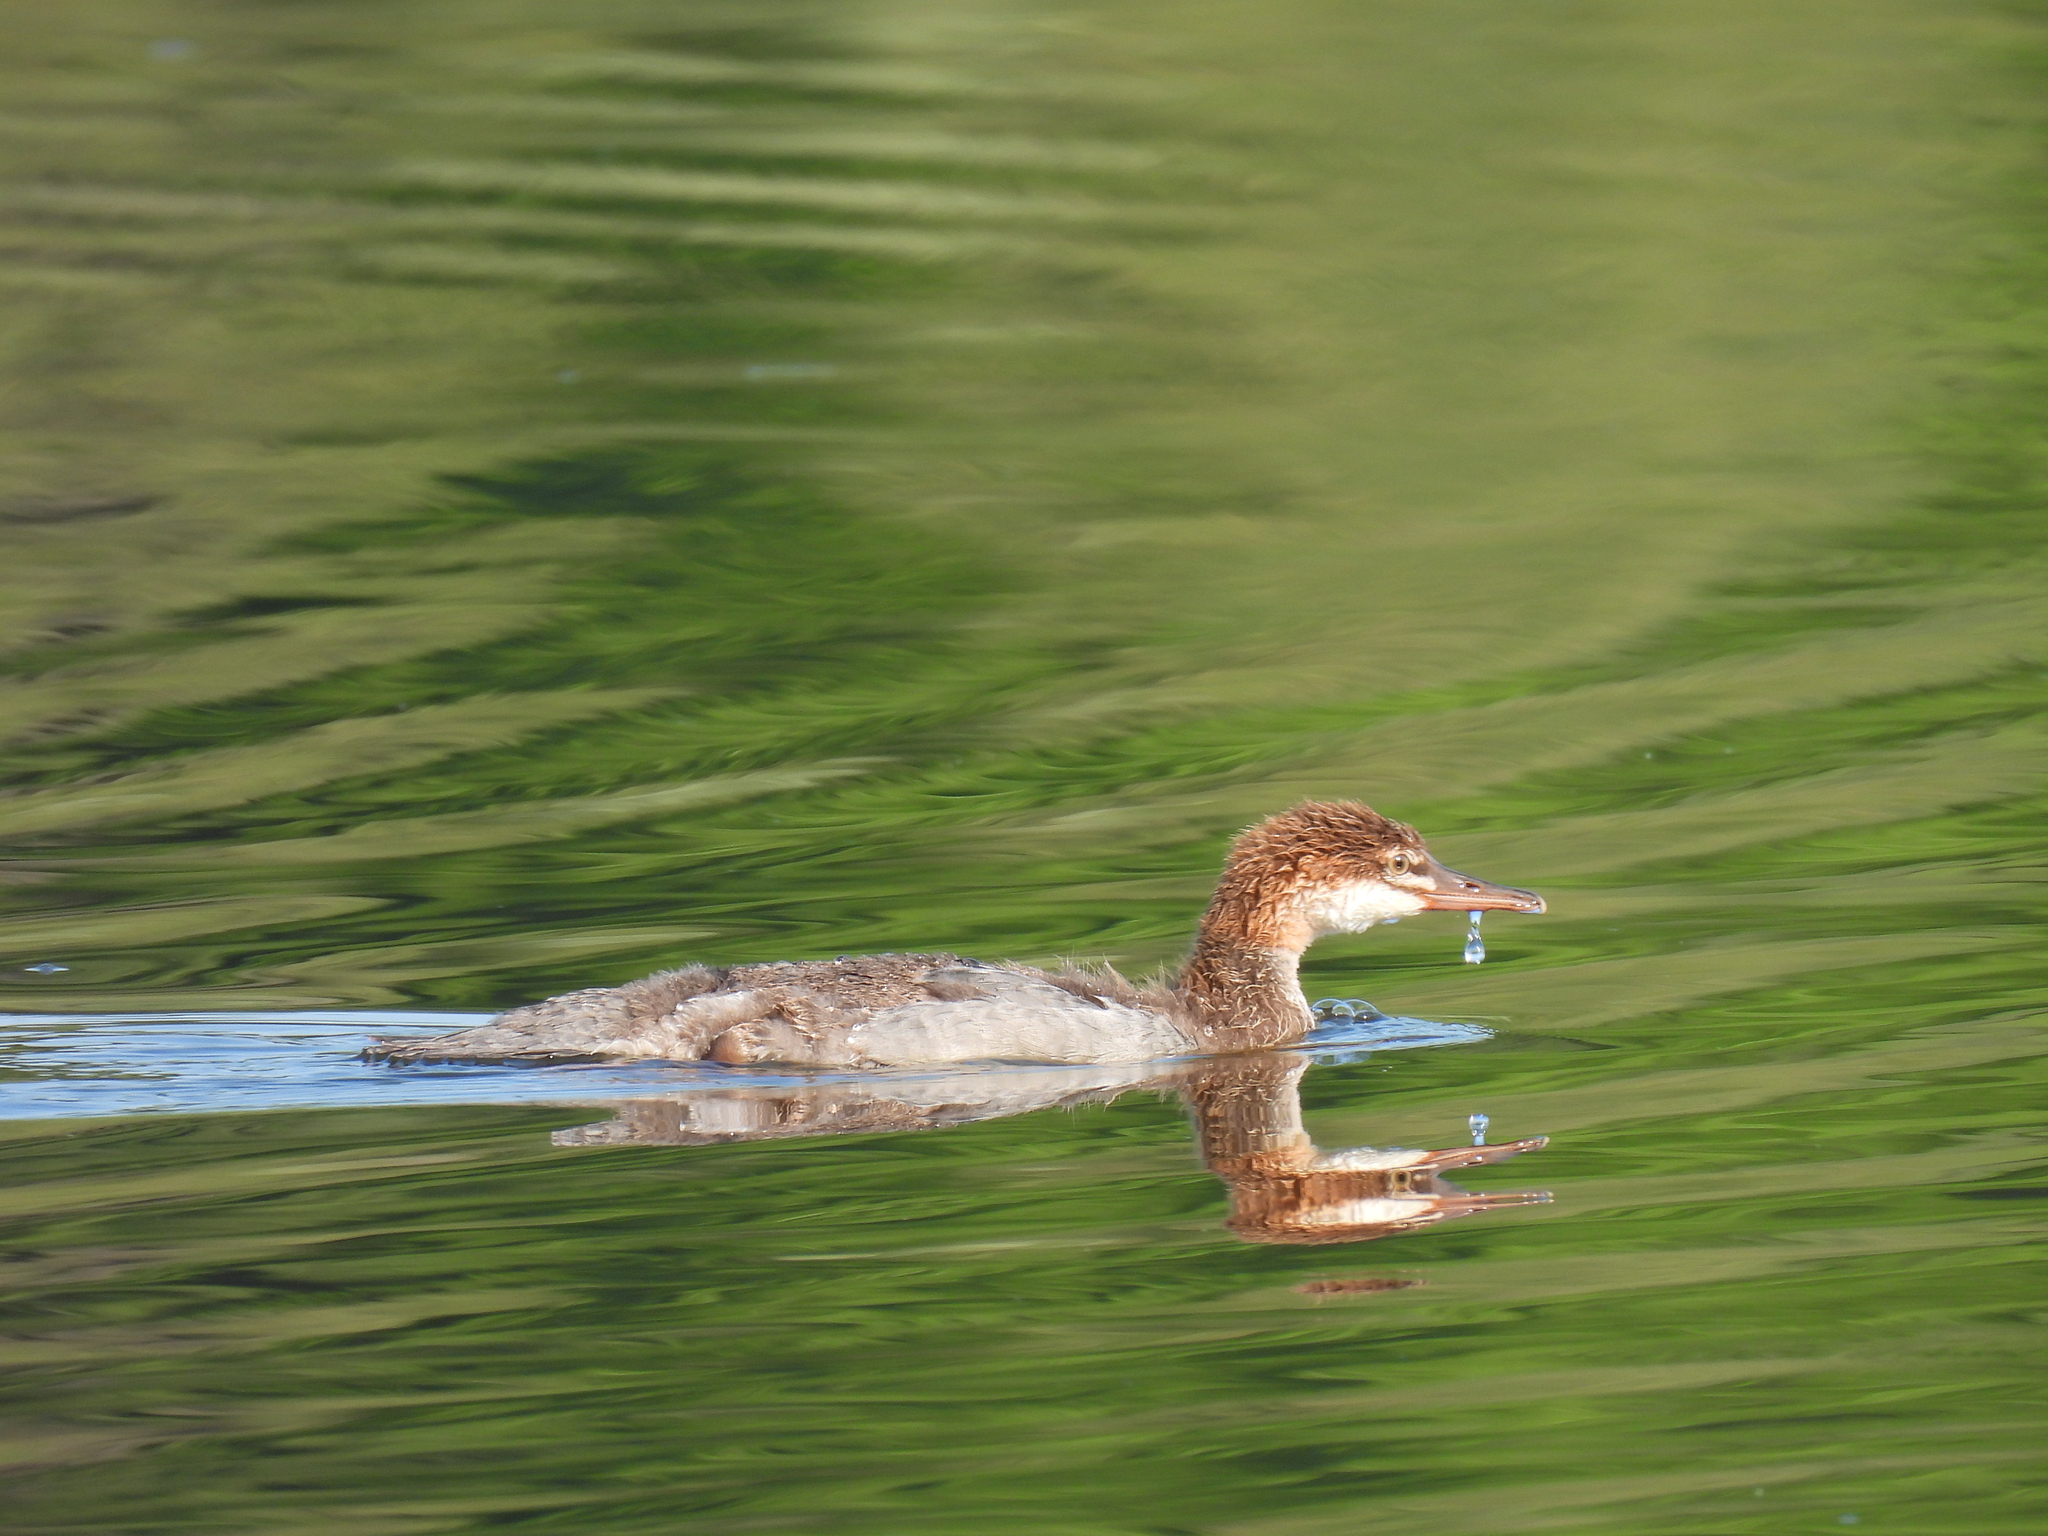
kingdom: Animalia
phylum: Chordata
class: Aves
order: Anseriformes
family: Anatidae
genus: Mergus
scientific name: Mergus merganser
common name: Common merganser
